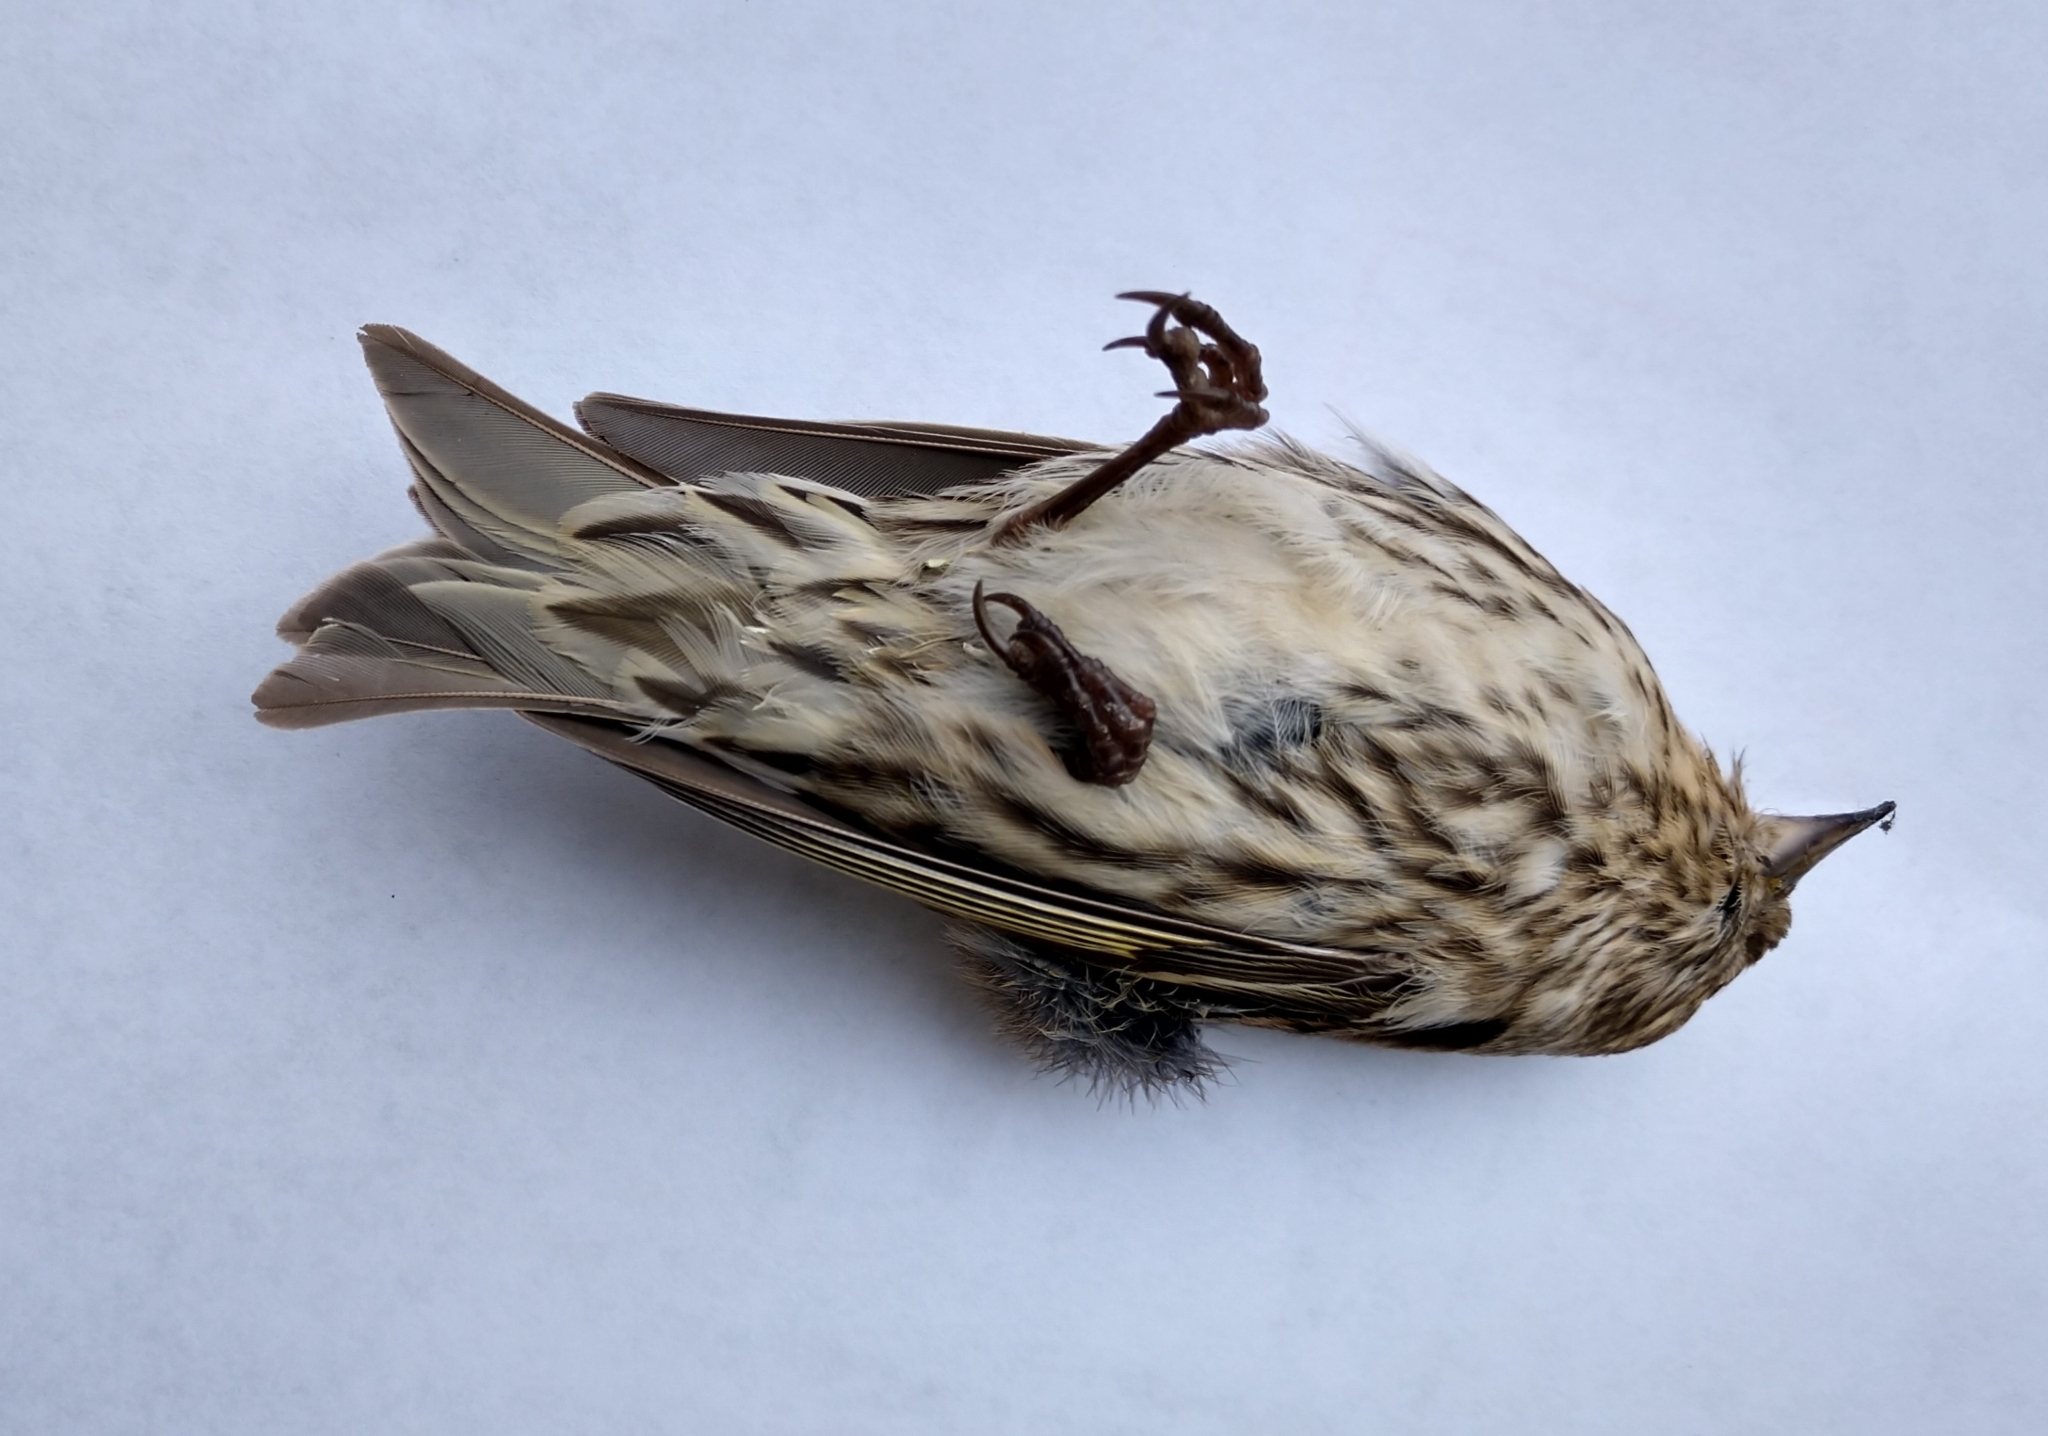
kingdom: Animalia
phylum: Chordata
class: Aves
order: Passeriformes
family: Fringillidae
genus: Spinus
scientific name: Spinus pinus
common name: Pine siskin
